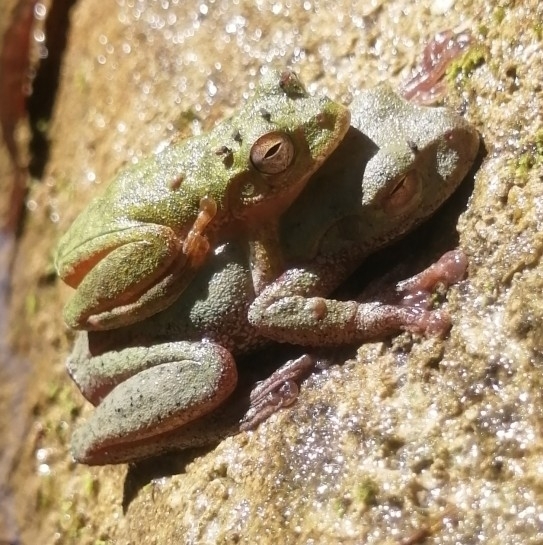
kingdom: Animalia
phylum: Chordata
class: Amphibia
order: Anura
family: Hylidae
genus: Rheohyla
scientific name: Rheohyla miotympanum
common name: Small-eard hyla
